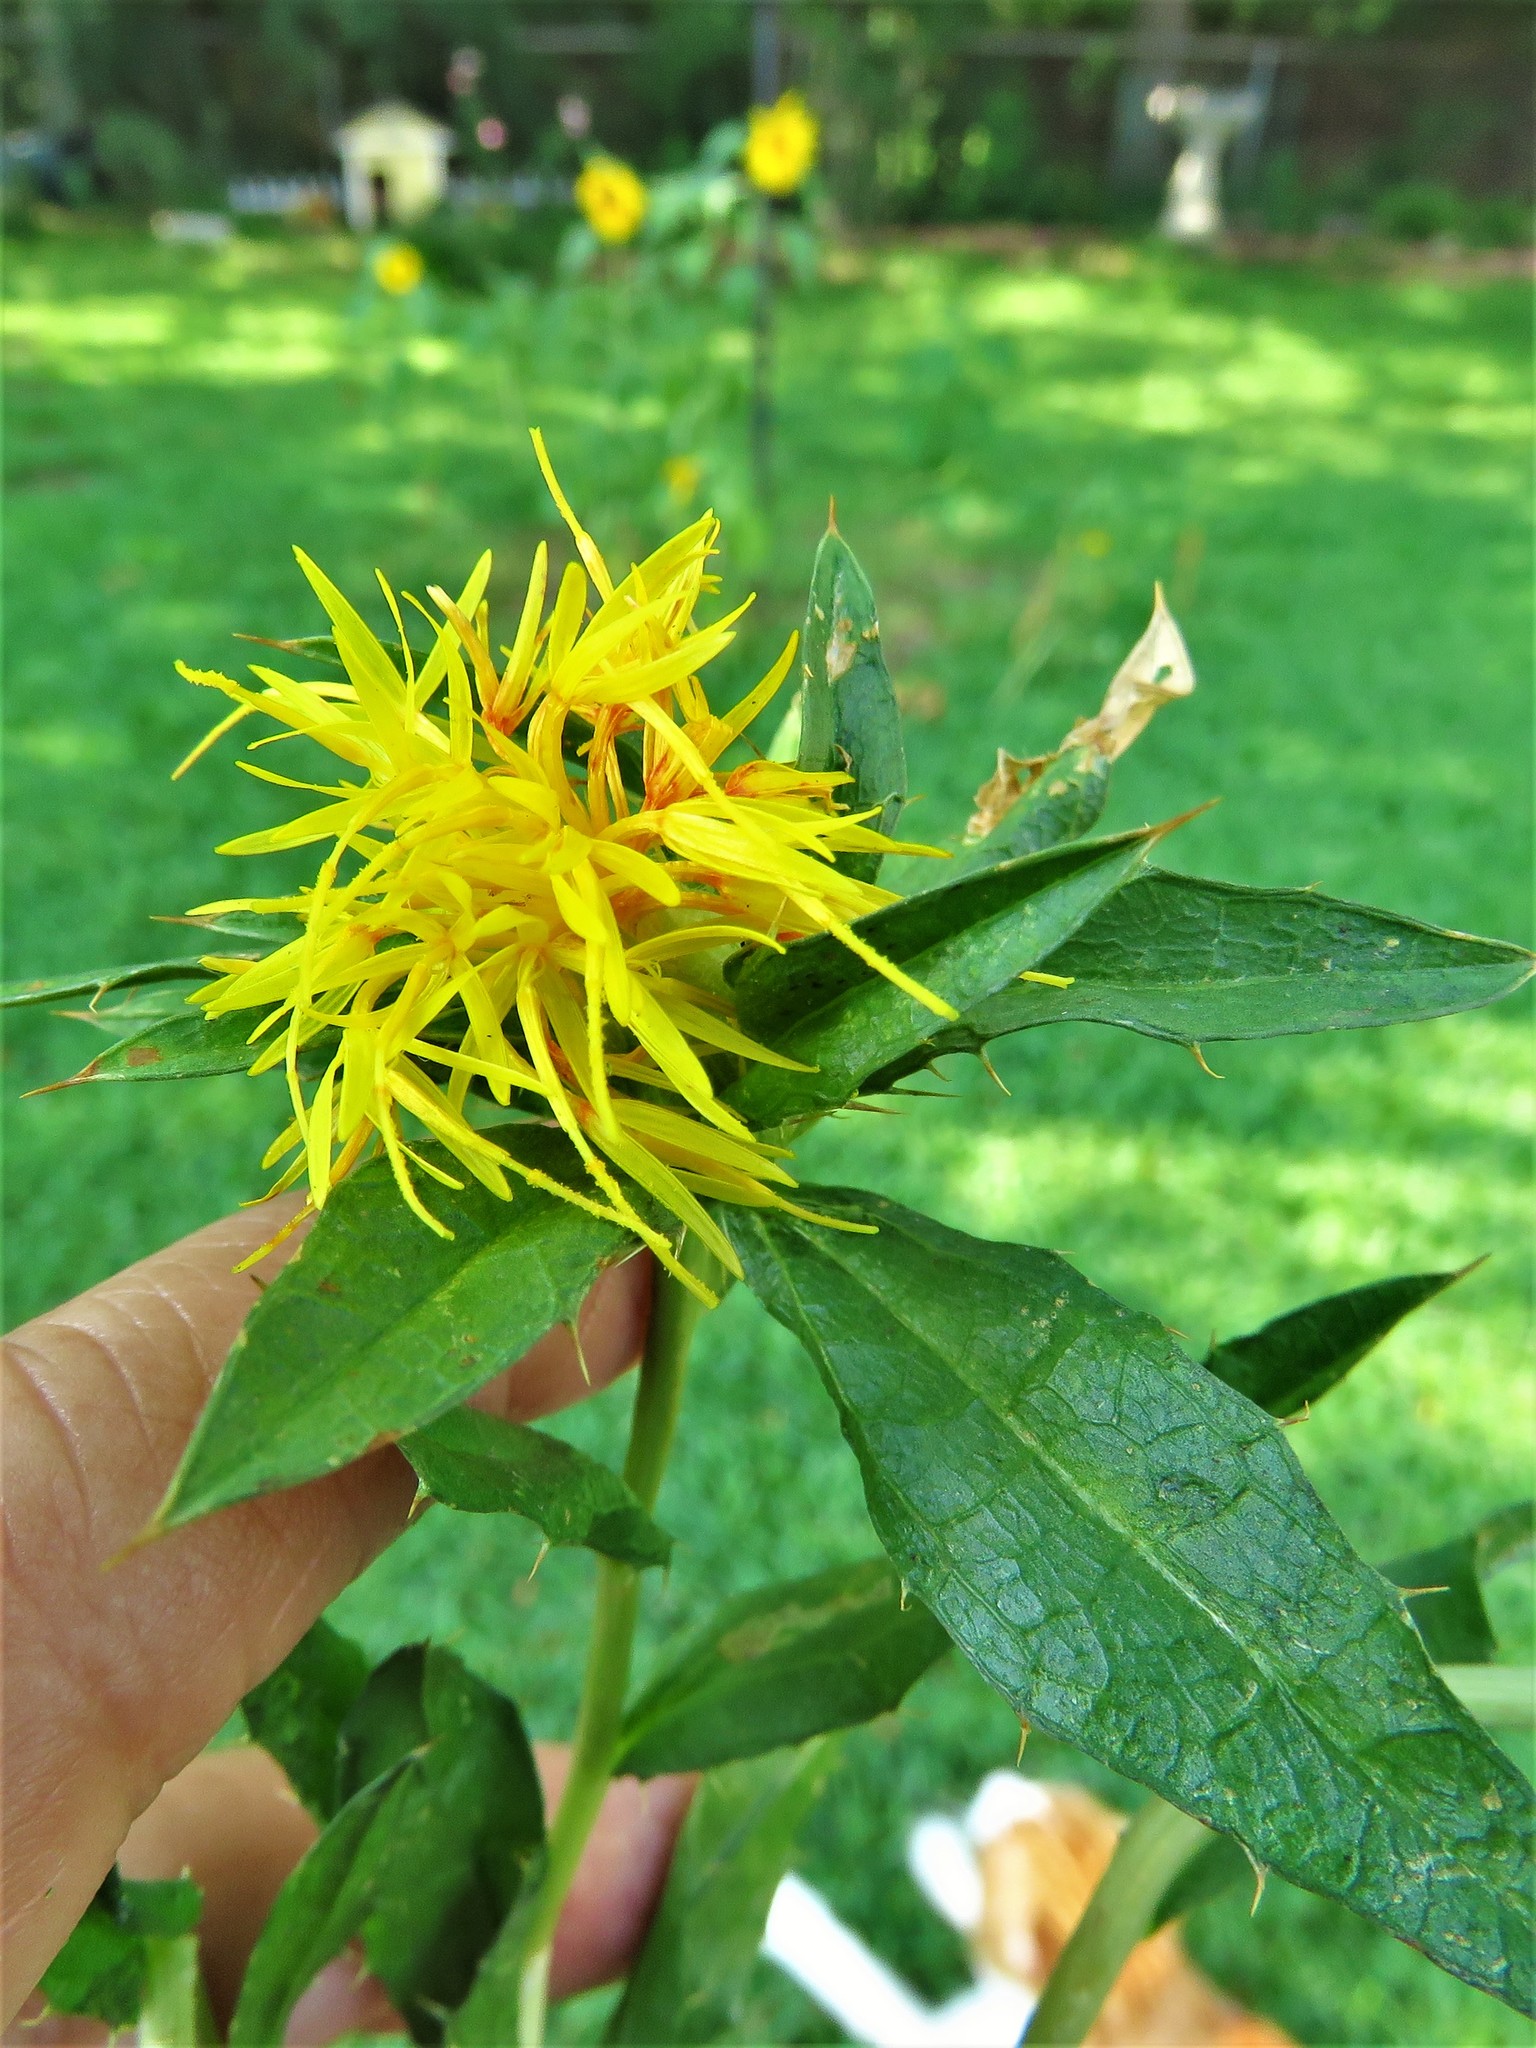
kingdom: Plantae
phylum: Tracheophyta
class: Magnoliopsida
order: Asterales
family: Asteraceae
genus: Carthamus
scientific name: Carthamus tinctorius
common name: Safflower
